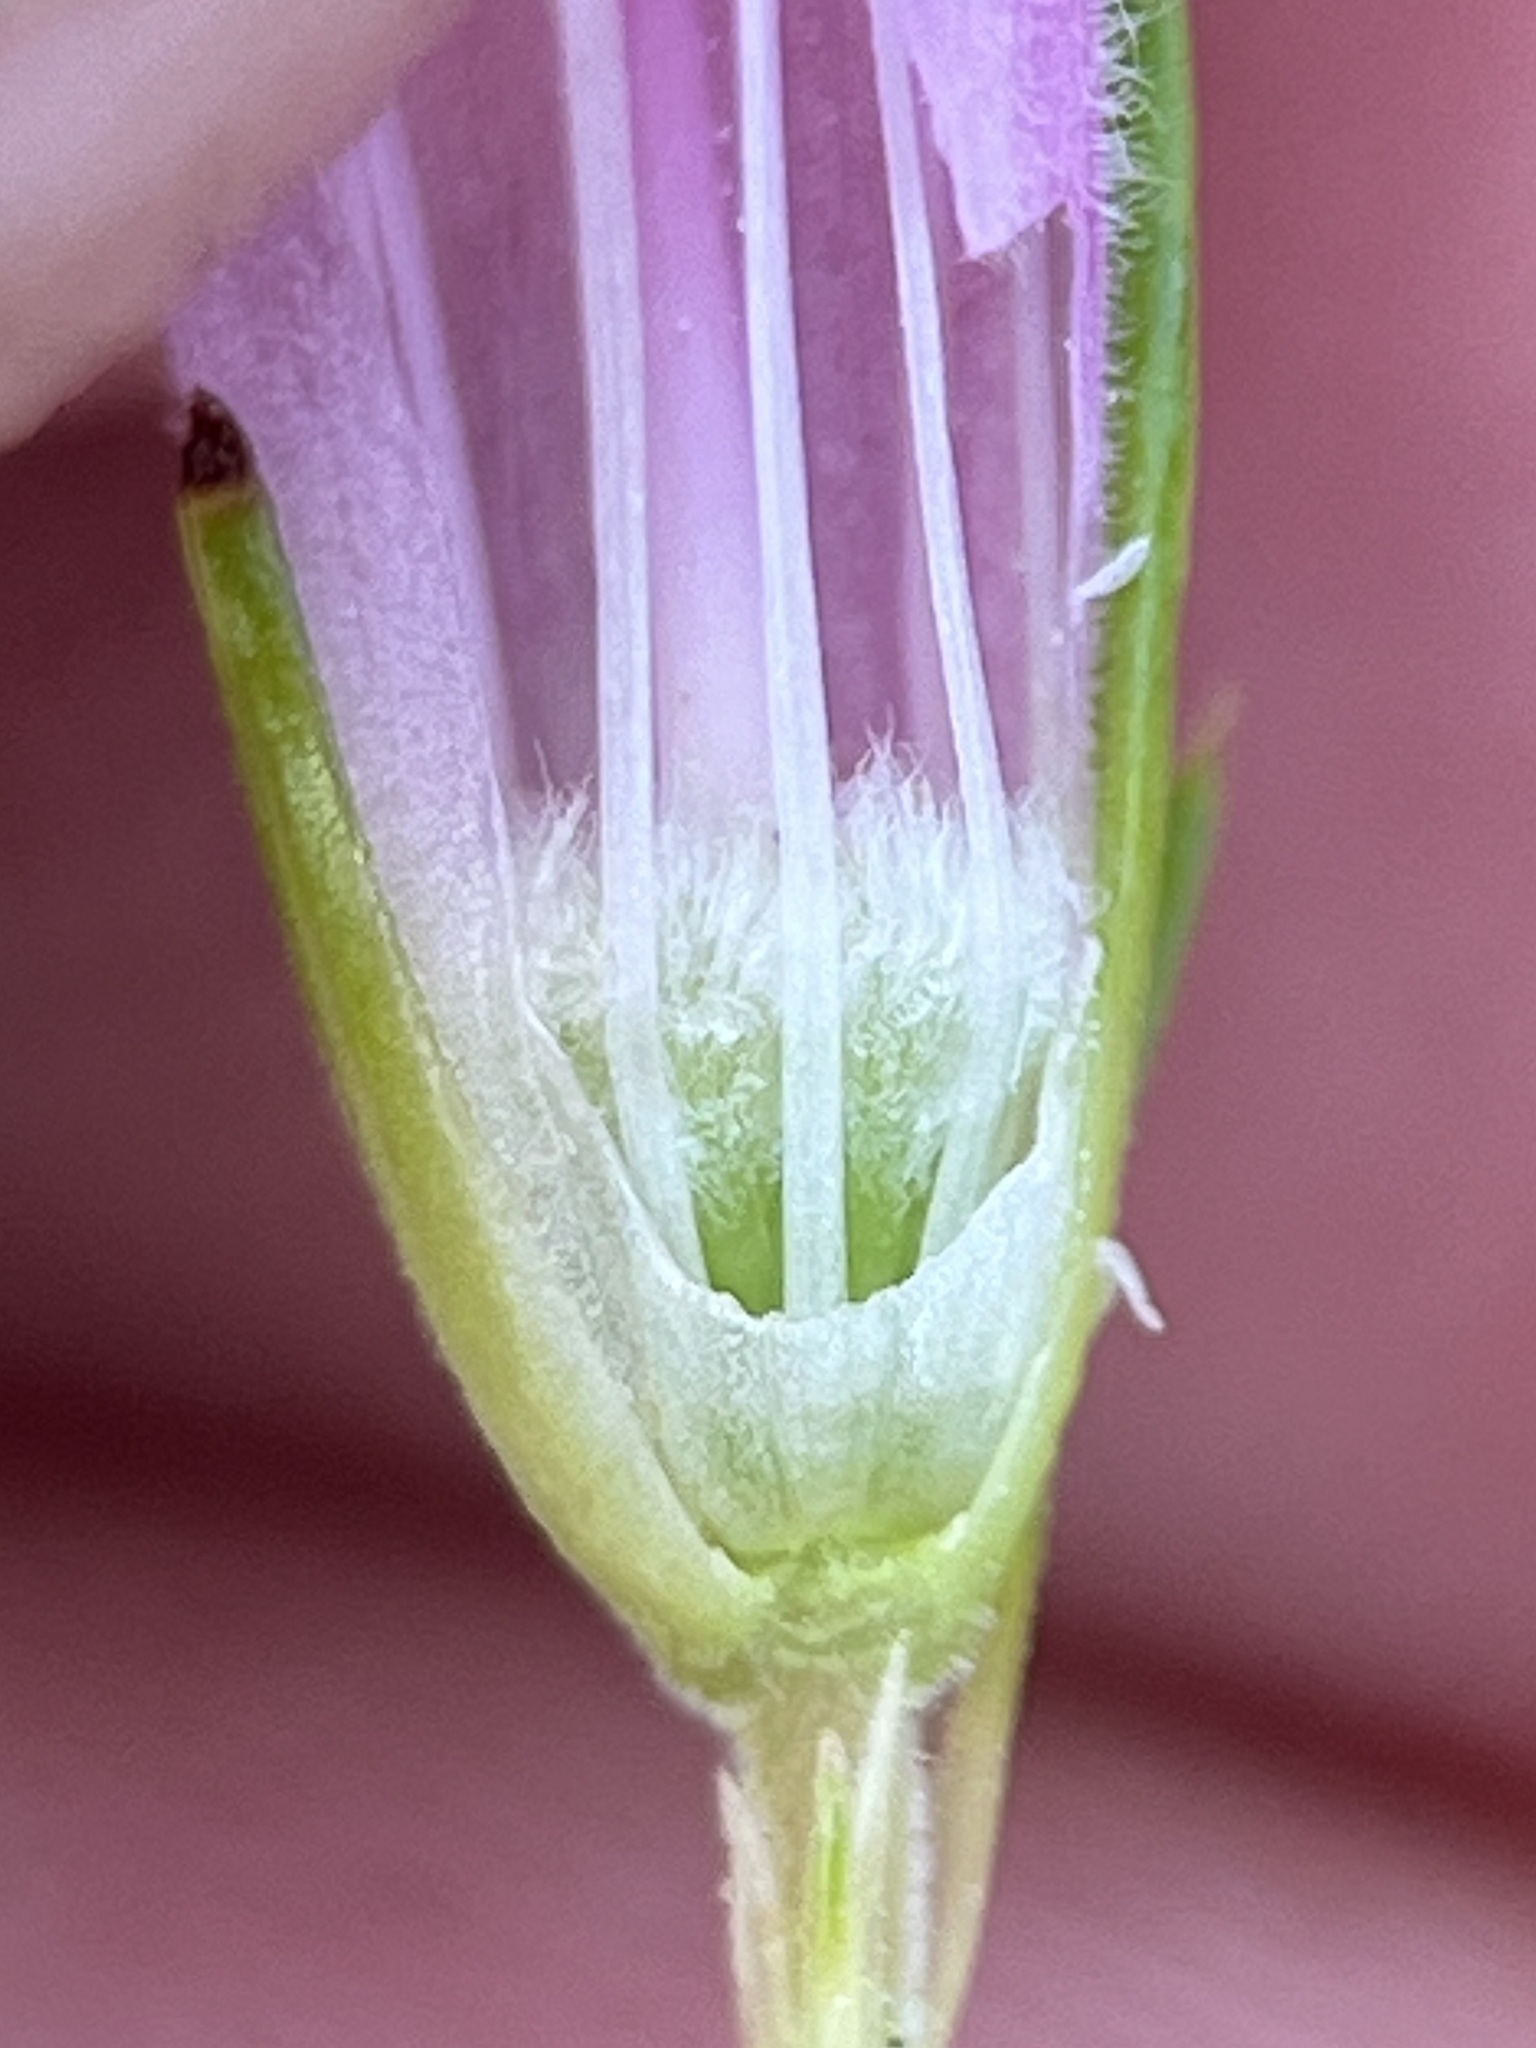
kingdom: Plantae
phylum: Tracheophyta
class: Magnoliopsida
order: Ericales
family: Ericaceae
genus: Erica
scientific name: Erica viscaria
